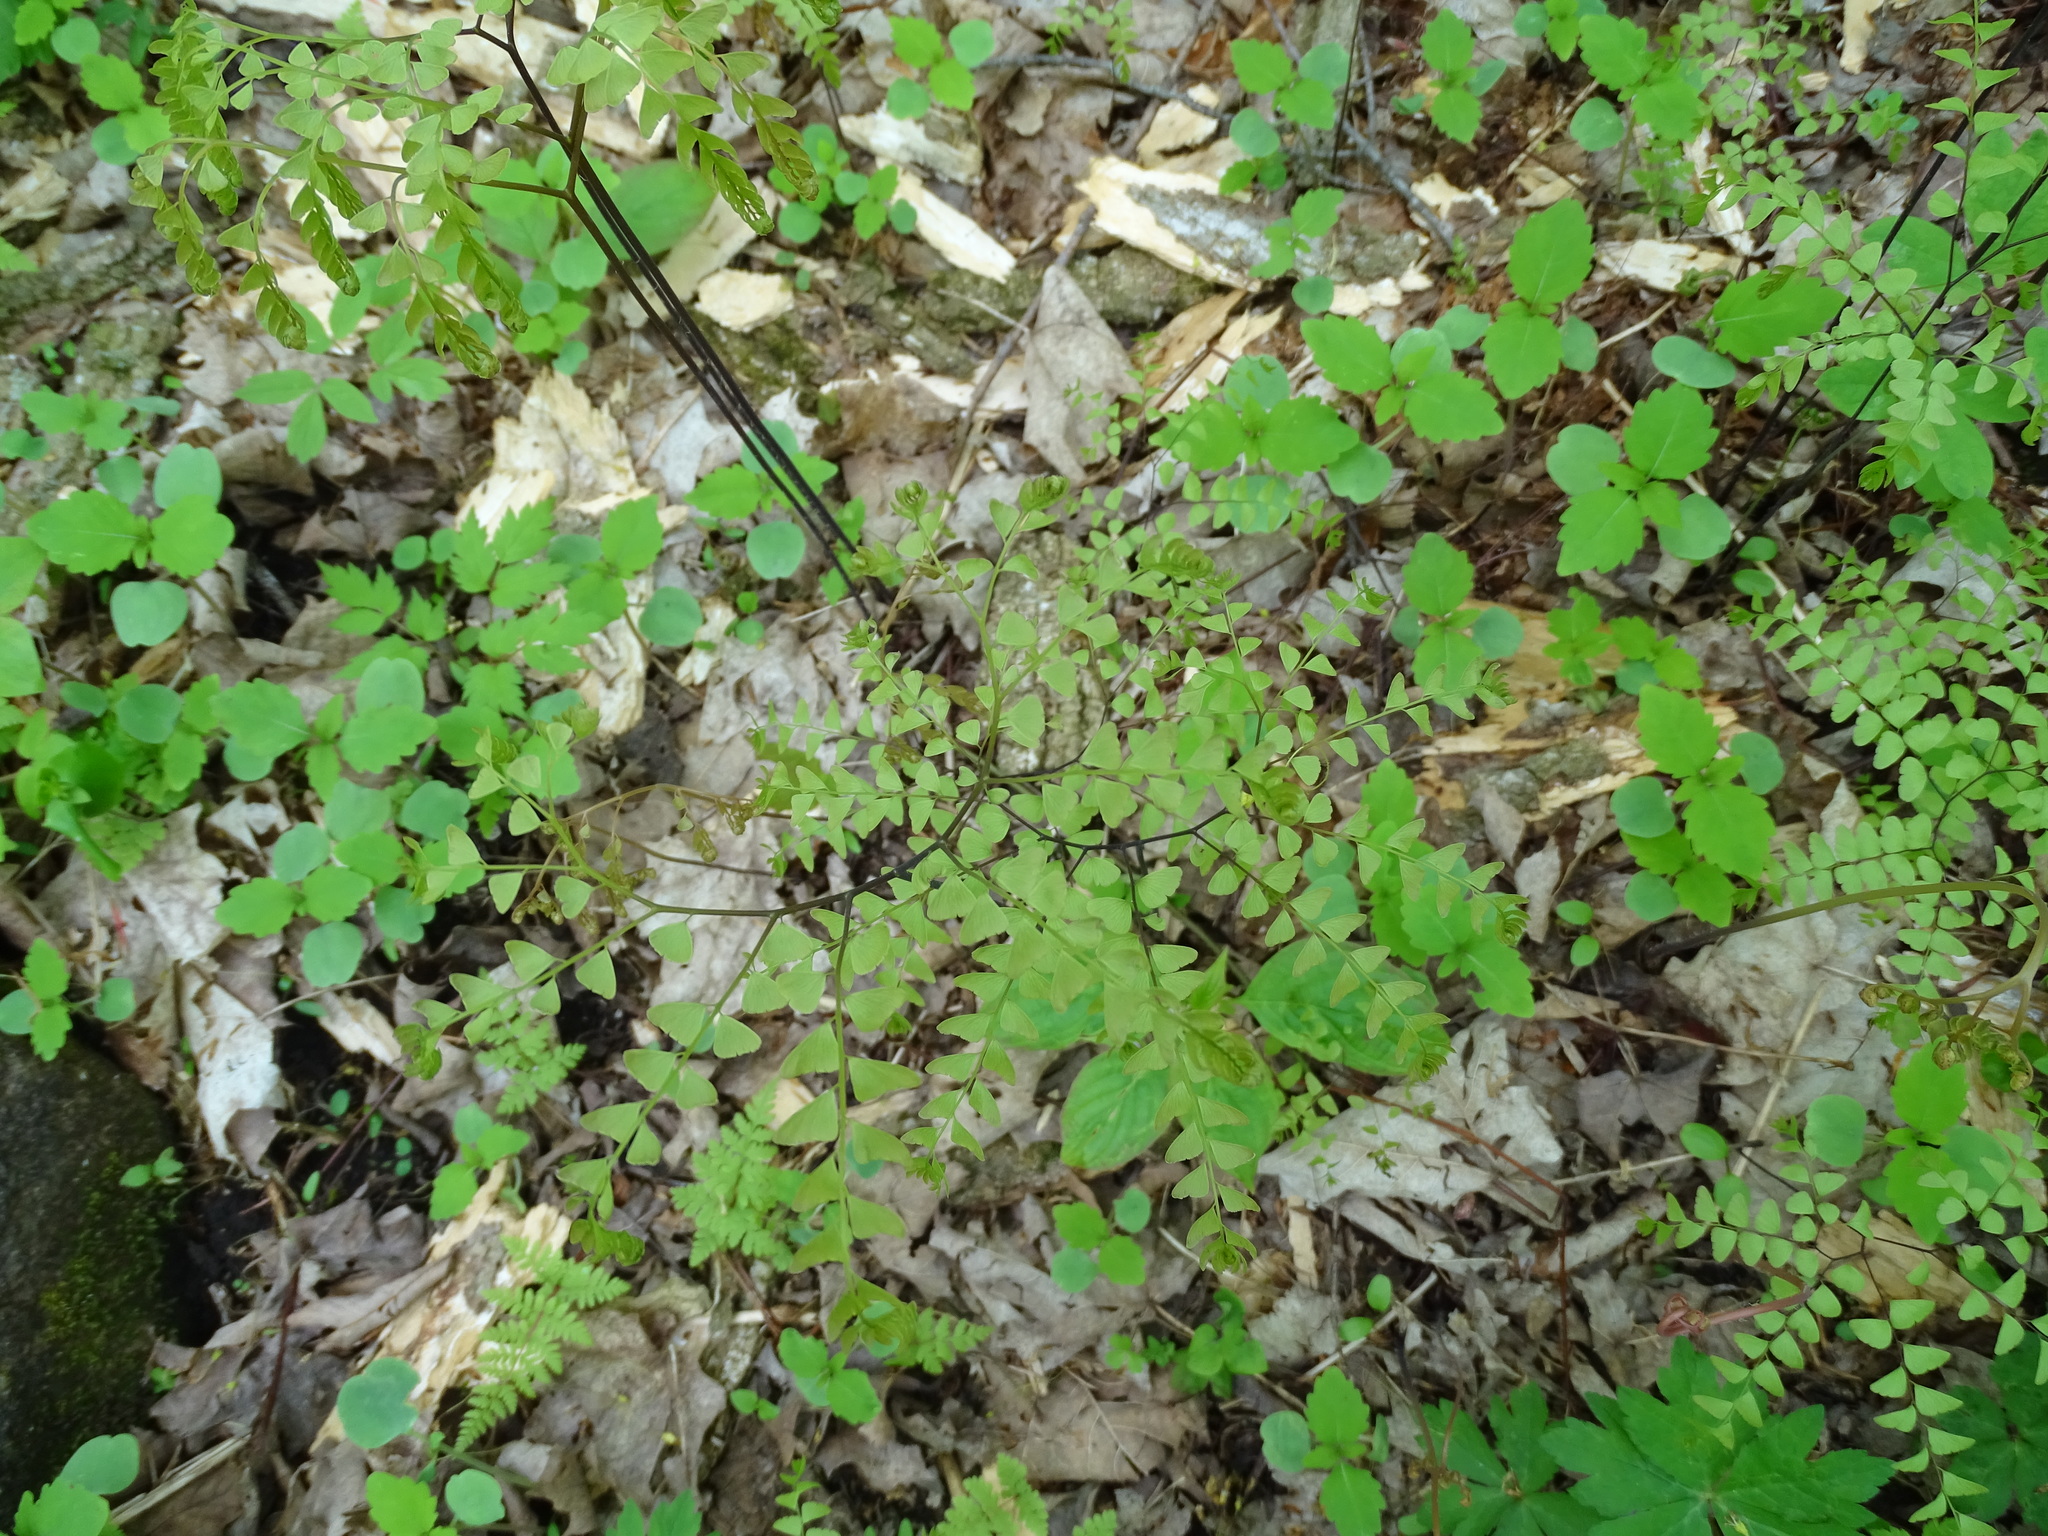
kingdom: Plantae
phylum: Tracheophyta
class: Polypodiopsida
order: Polypodiales
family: Pteridaceae
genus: Adiantum
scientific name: Adiantum pedatum
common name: Five-finger fern
